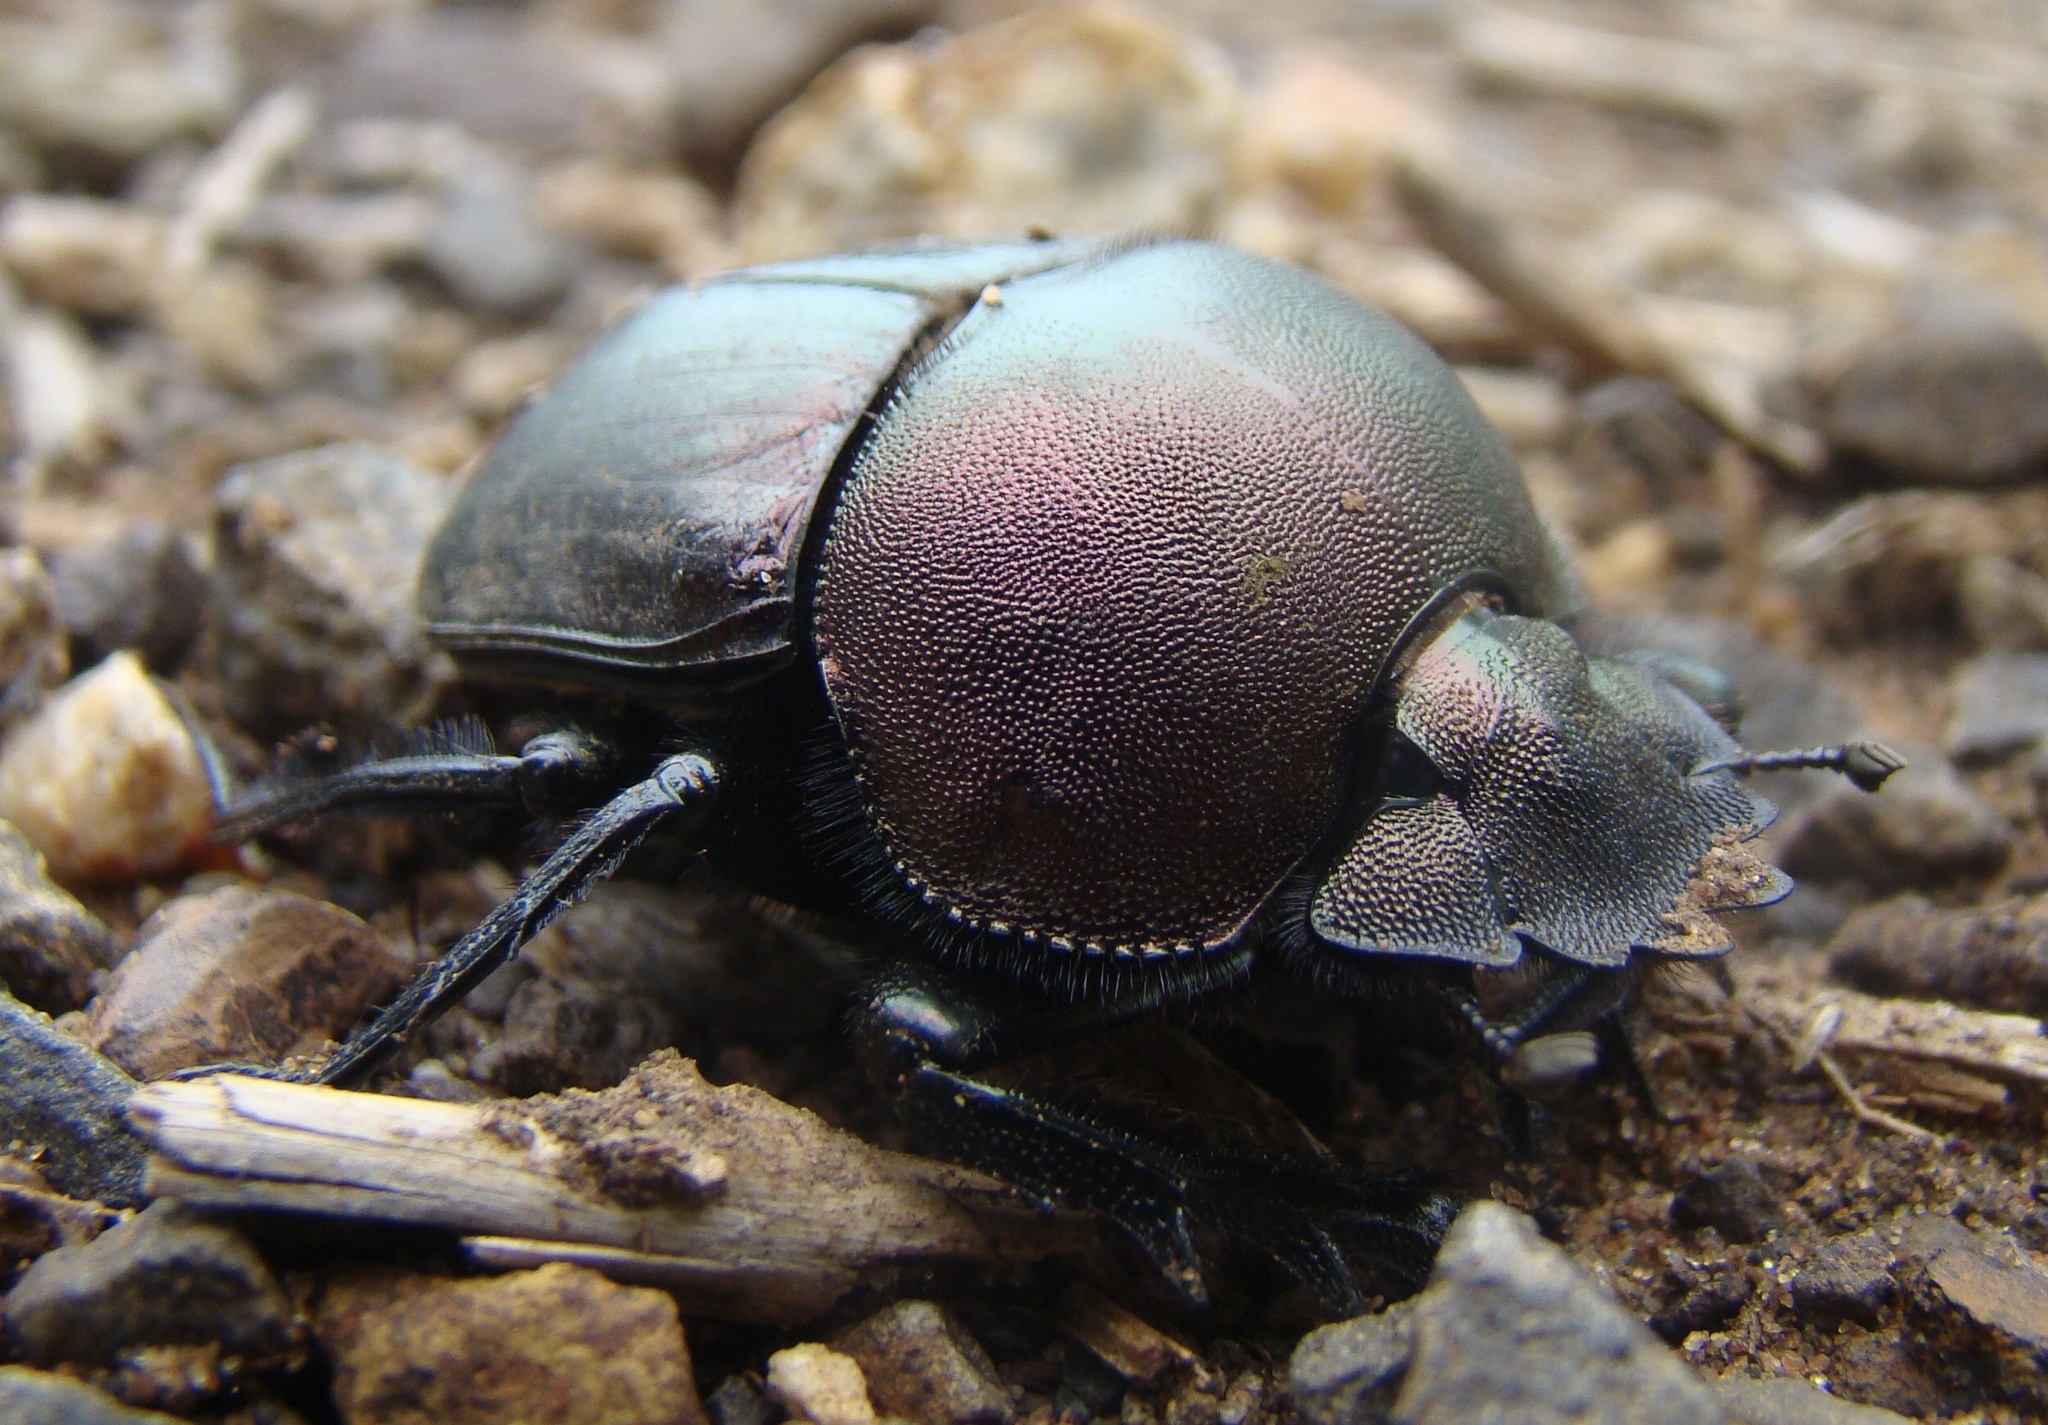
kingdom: Animalia
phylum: Arthropoda
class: Insecta
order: Coleoptera
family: Scarabaeidae
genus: Kheper
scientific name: Kheper nigroaeneus
